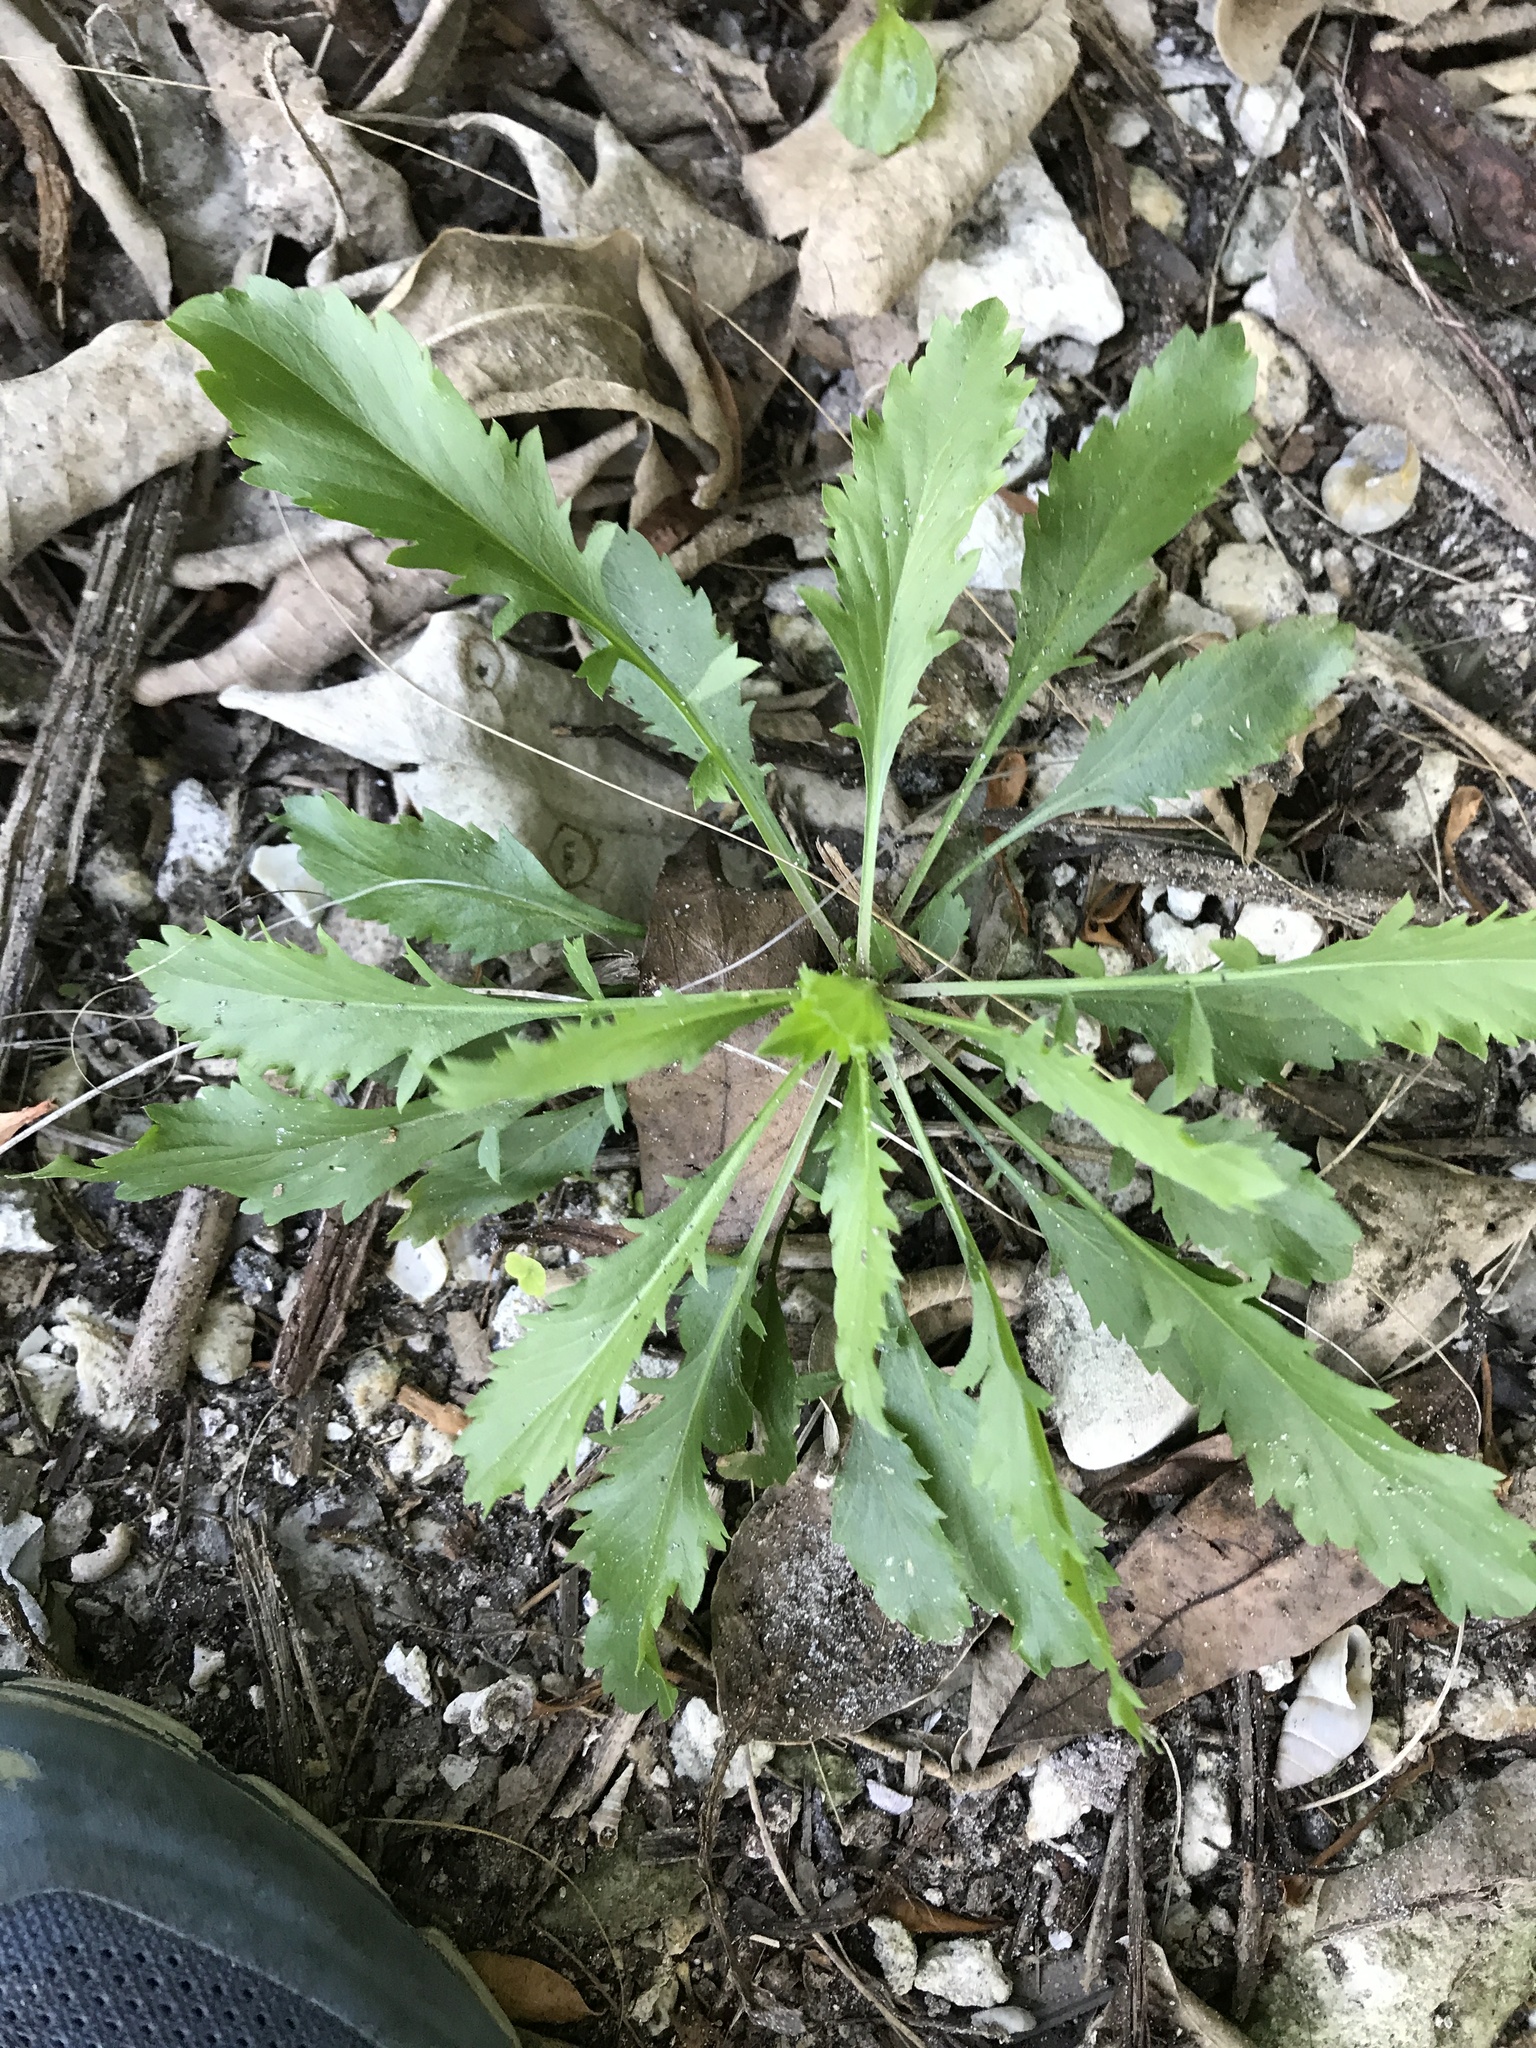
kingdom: Plantae
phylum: Tracheophyta
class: Magnoliopsida
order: Brassicales
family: Brassicaceae
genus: Lepidium
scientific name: Lepidium virginicum
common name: Least pepperwort
